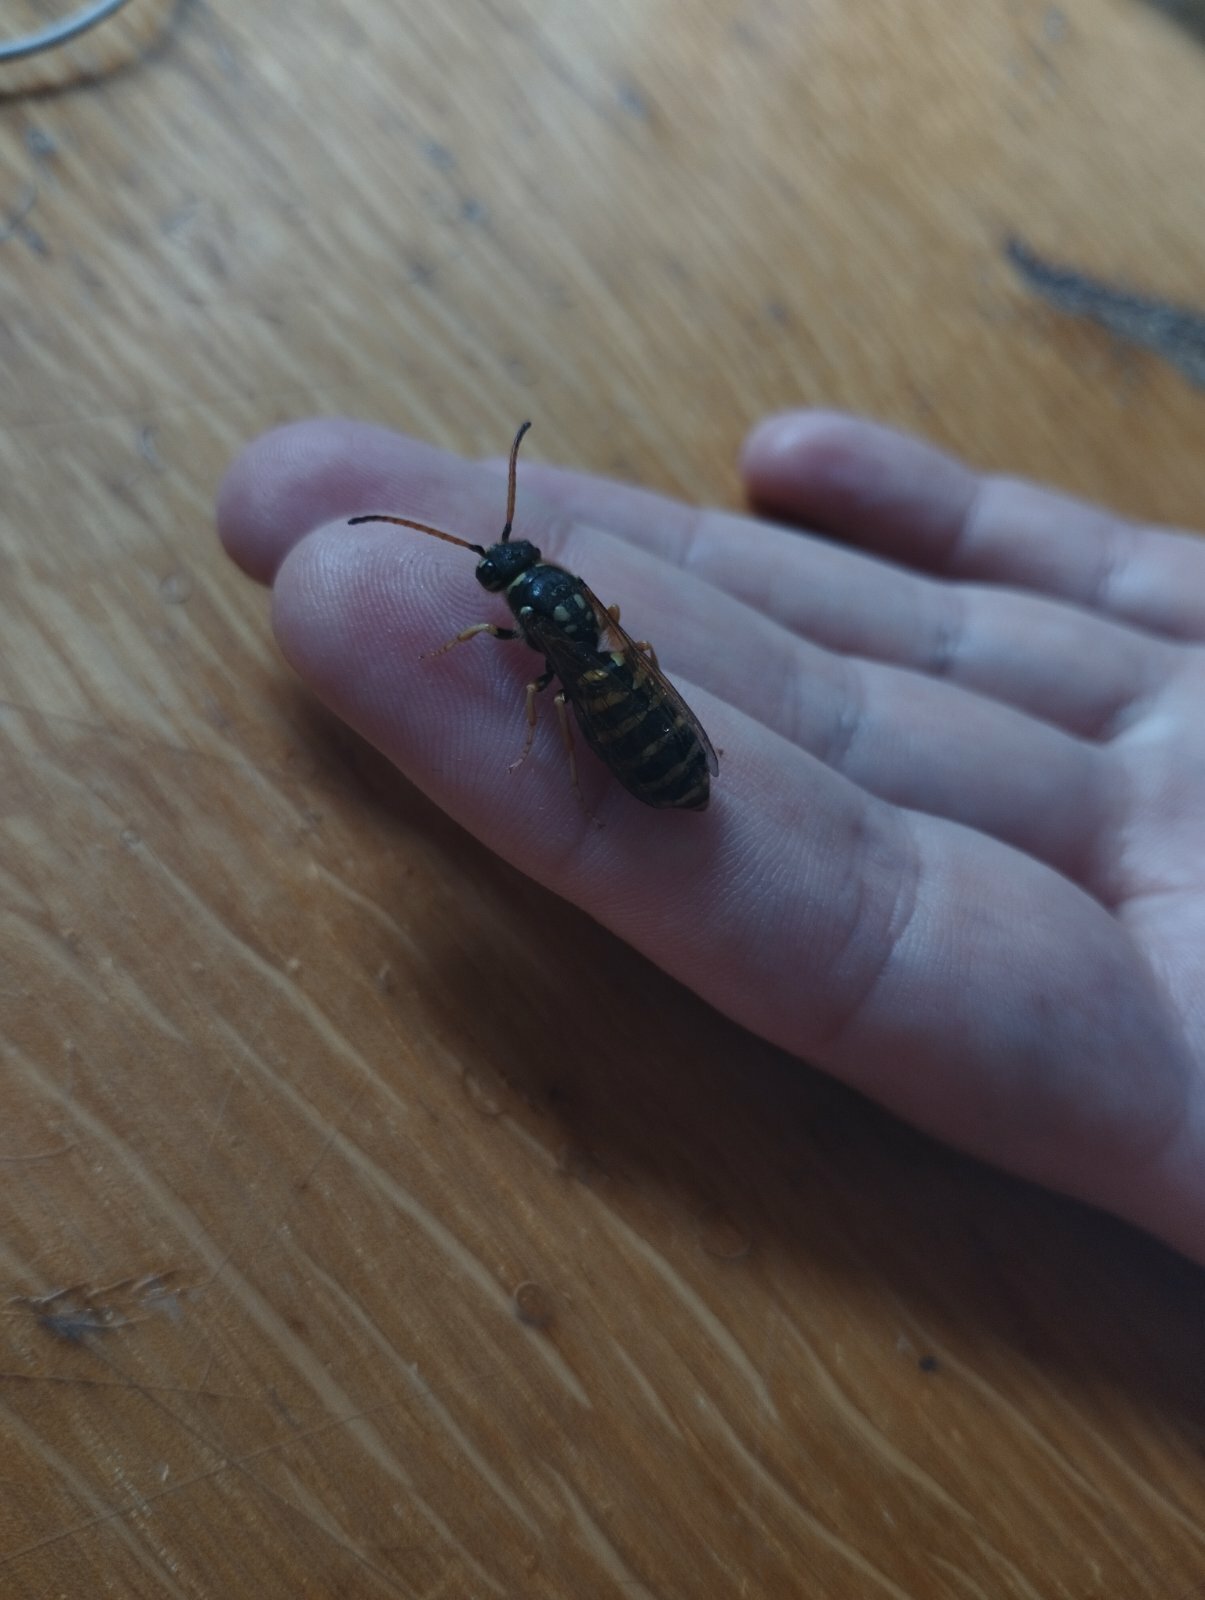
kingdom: Animalia
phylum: Arthropoda
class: Insecta
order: Hymenoptera
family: Masaridae
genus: Polochrum
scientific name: Polochrum repandum
